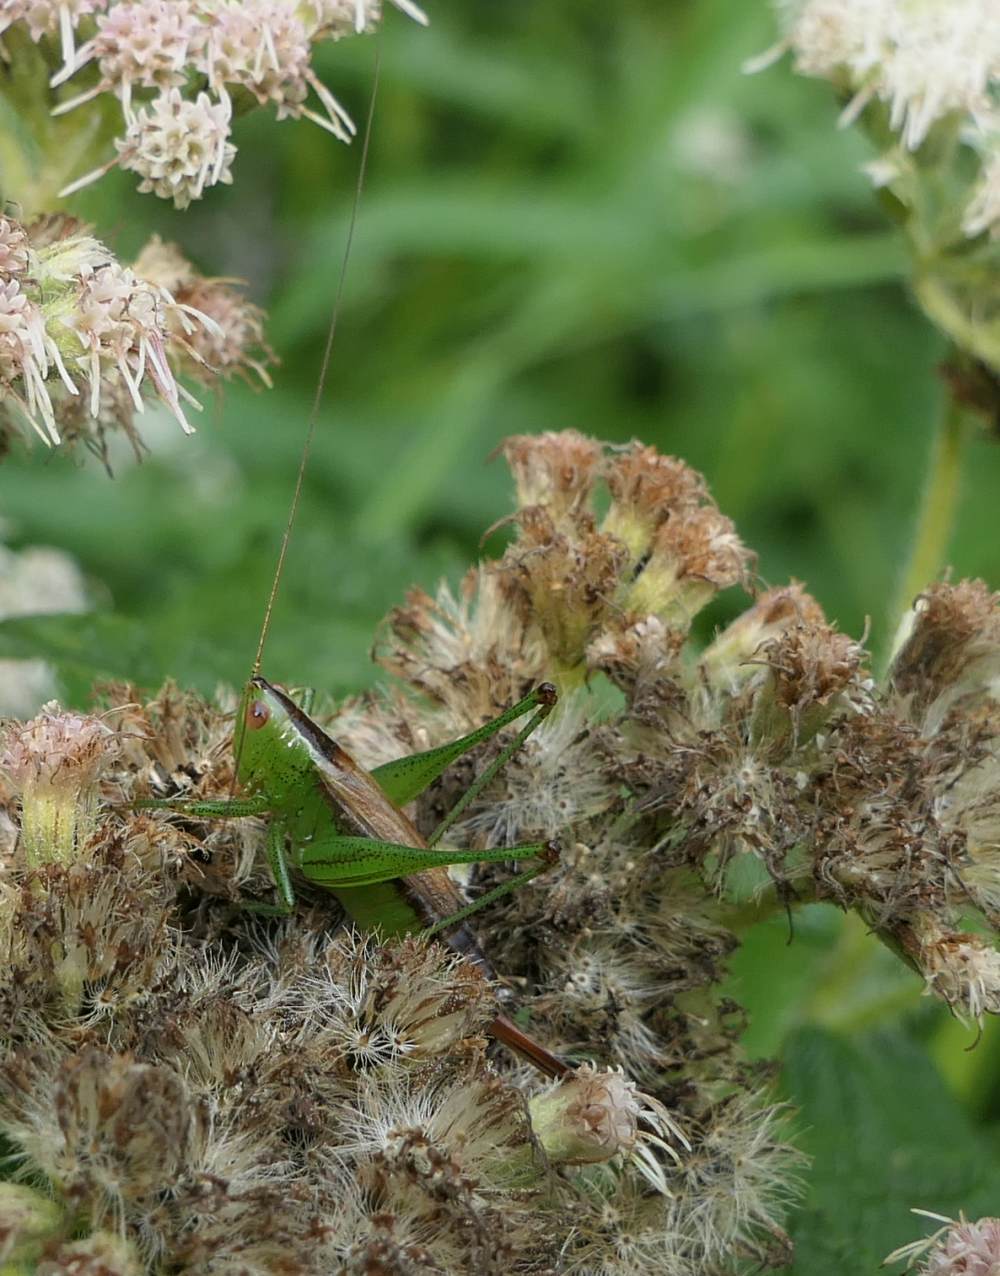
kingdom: Animalia
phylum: Arthropoda
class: Insecta
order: Orthoptera
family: Tettigoniidae
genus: Conocephalus
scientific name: Conocephalus brevipennis
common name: Short-winged meadow katydid
